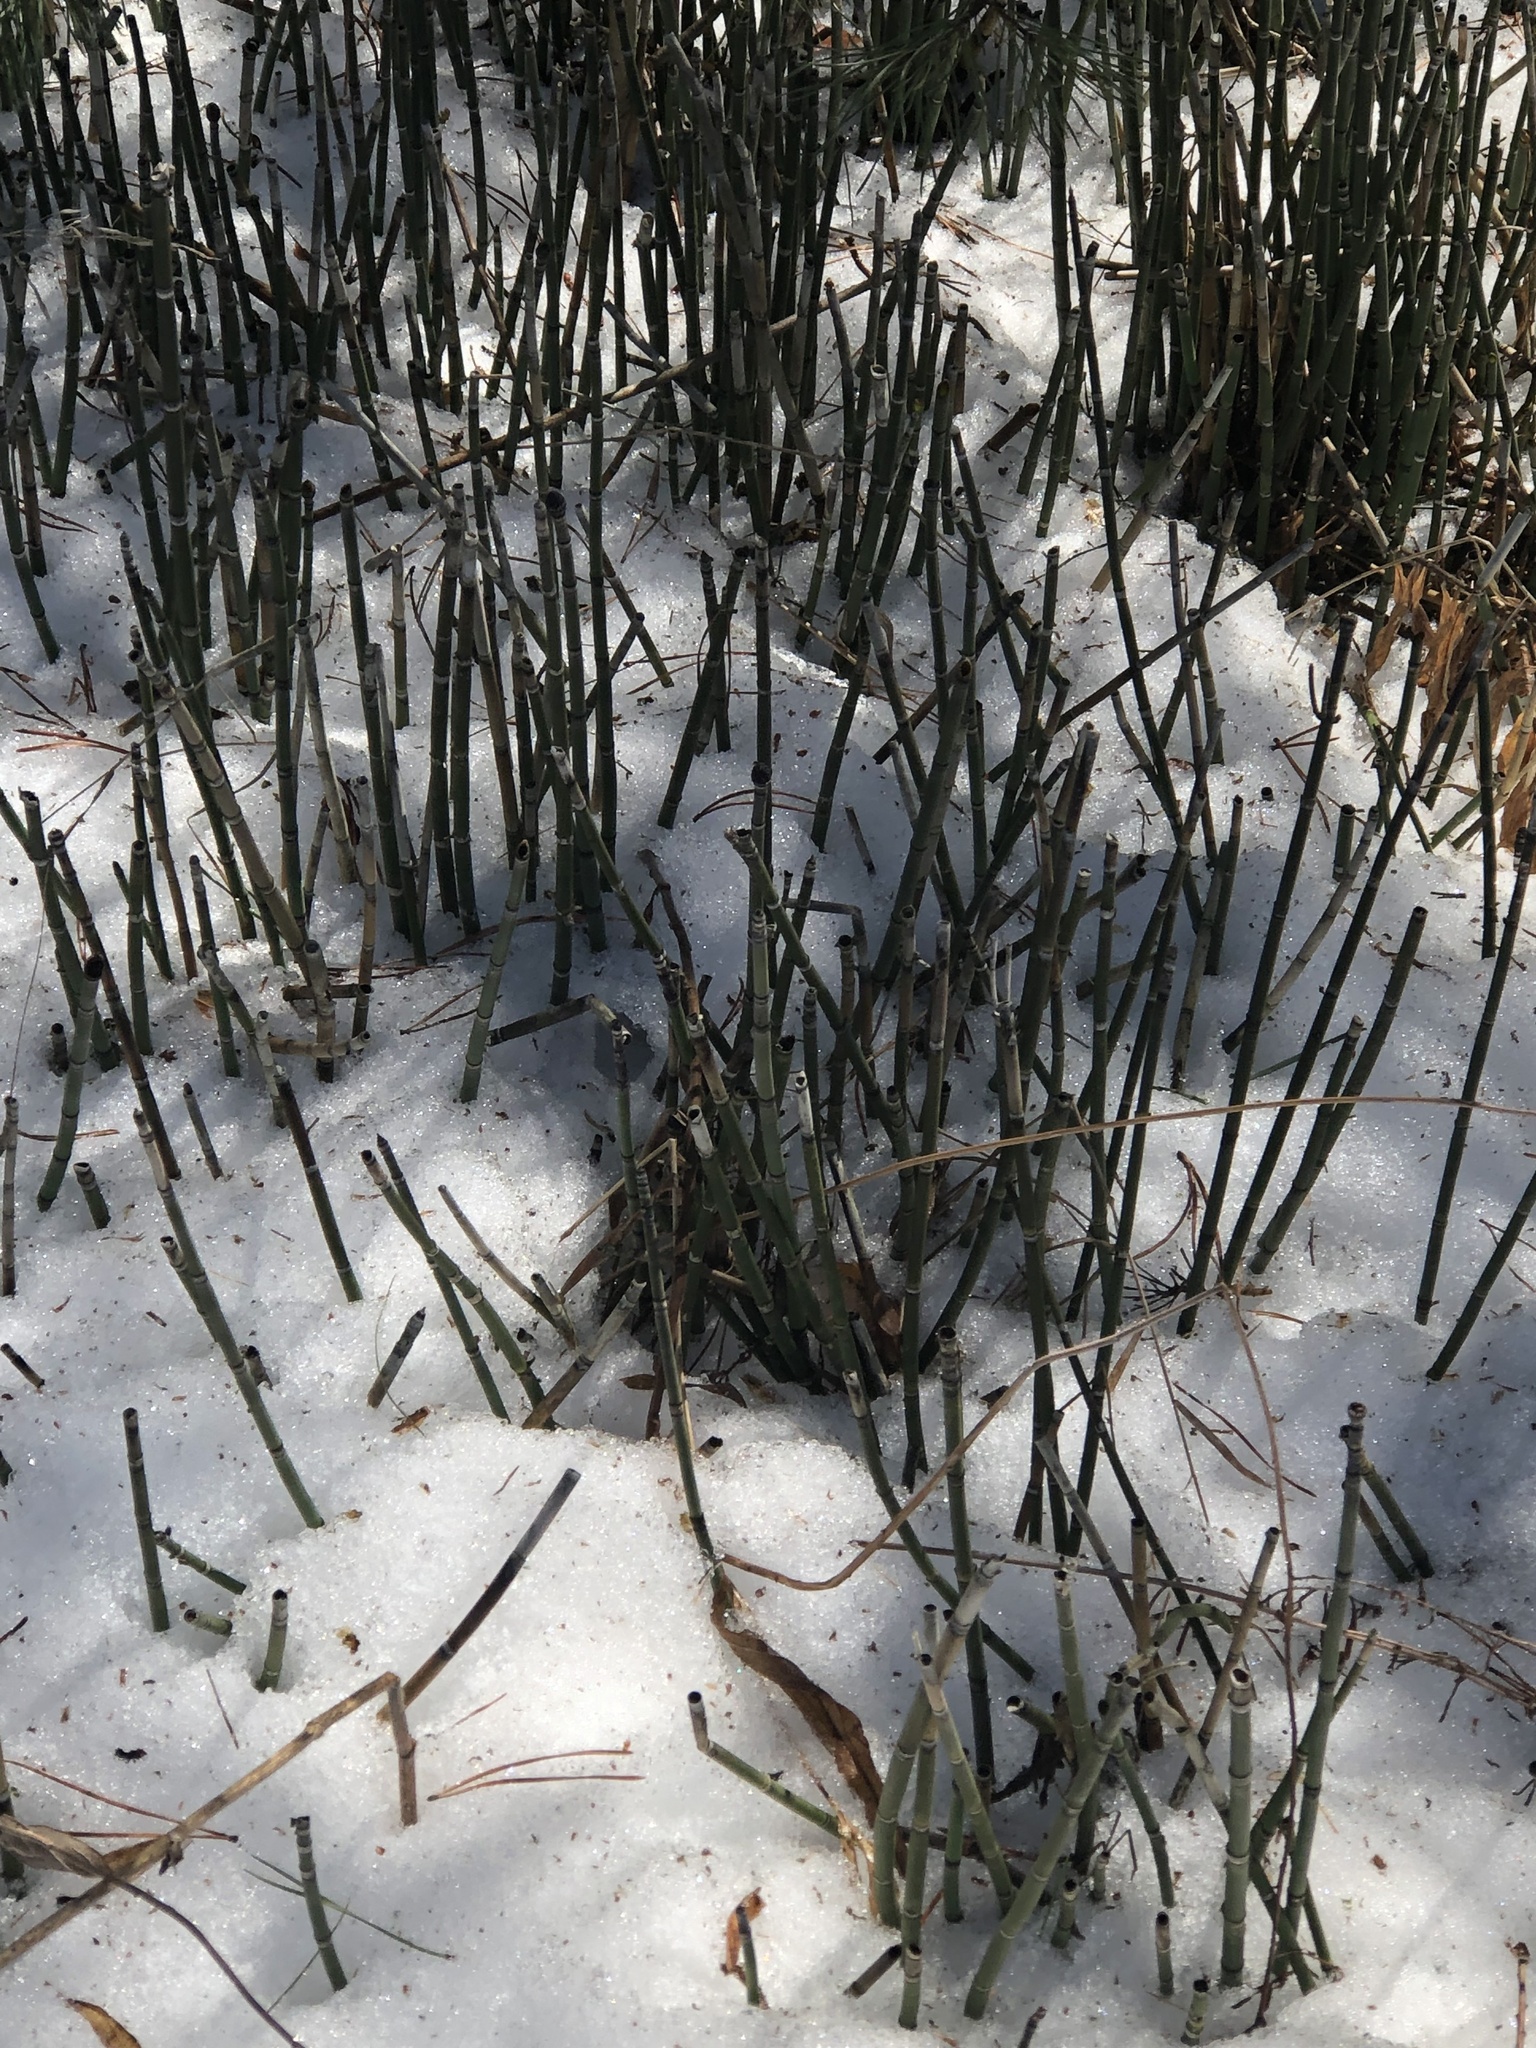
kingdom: Plantae
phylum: Tracheophyta
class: Polypodiopsida
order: Equisetales
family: Equisetaceae
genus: Equisetum
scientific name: Equisetum hyemale
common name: Rough horsetail
